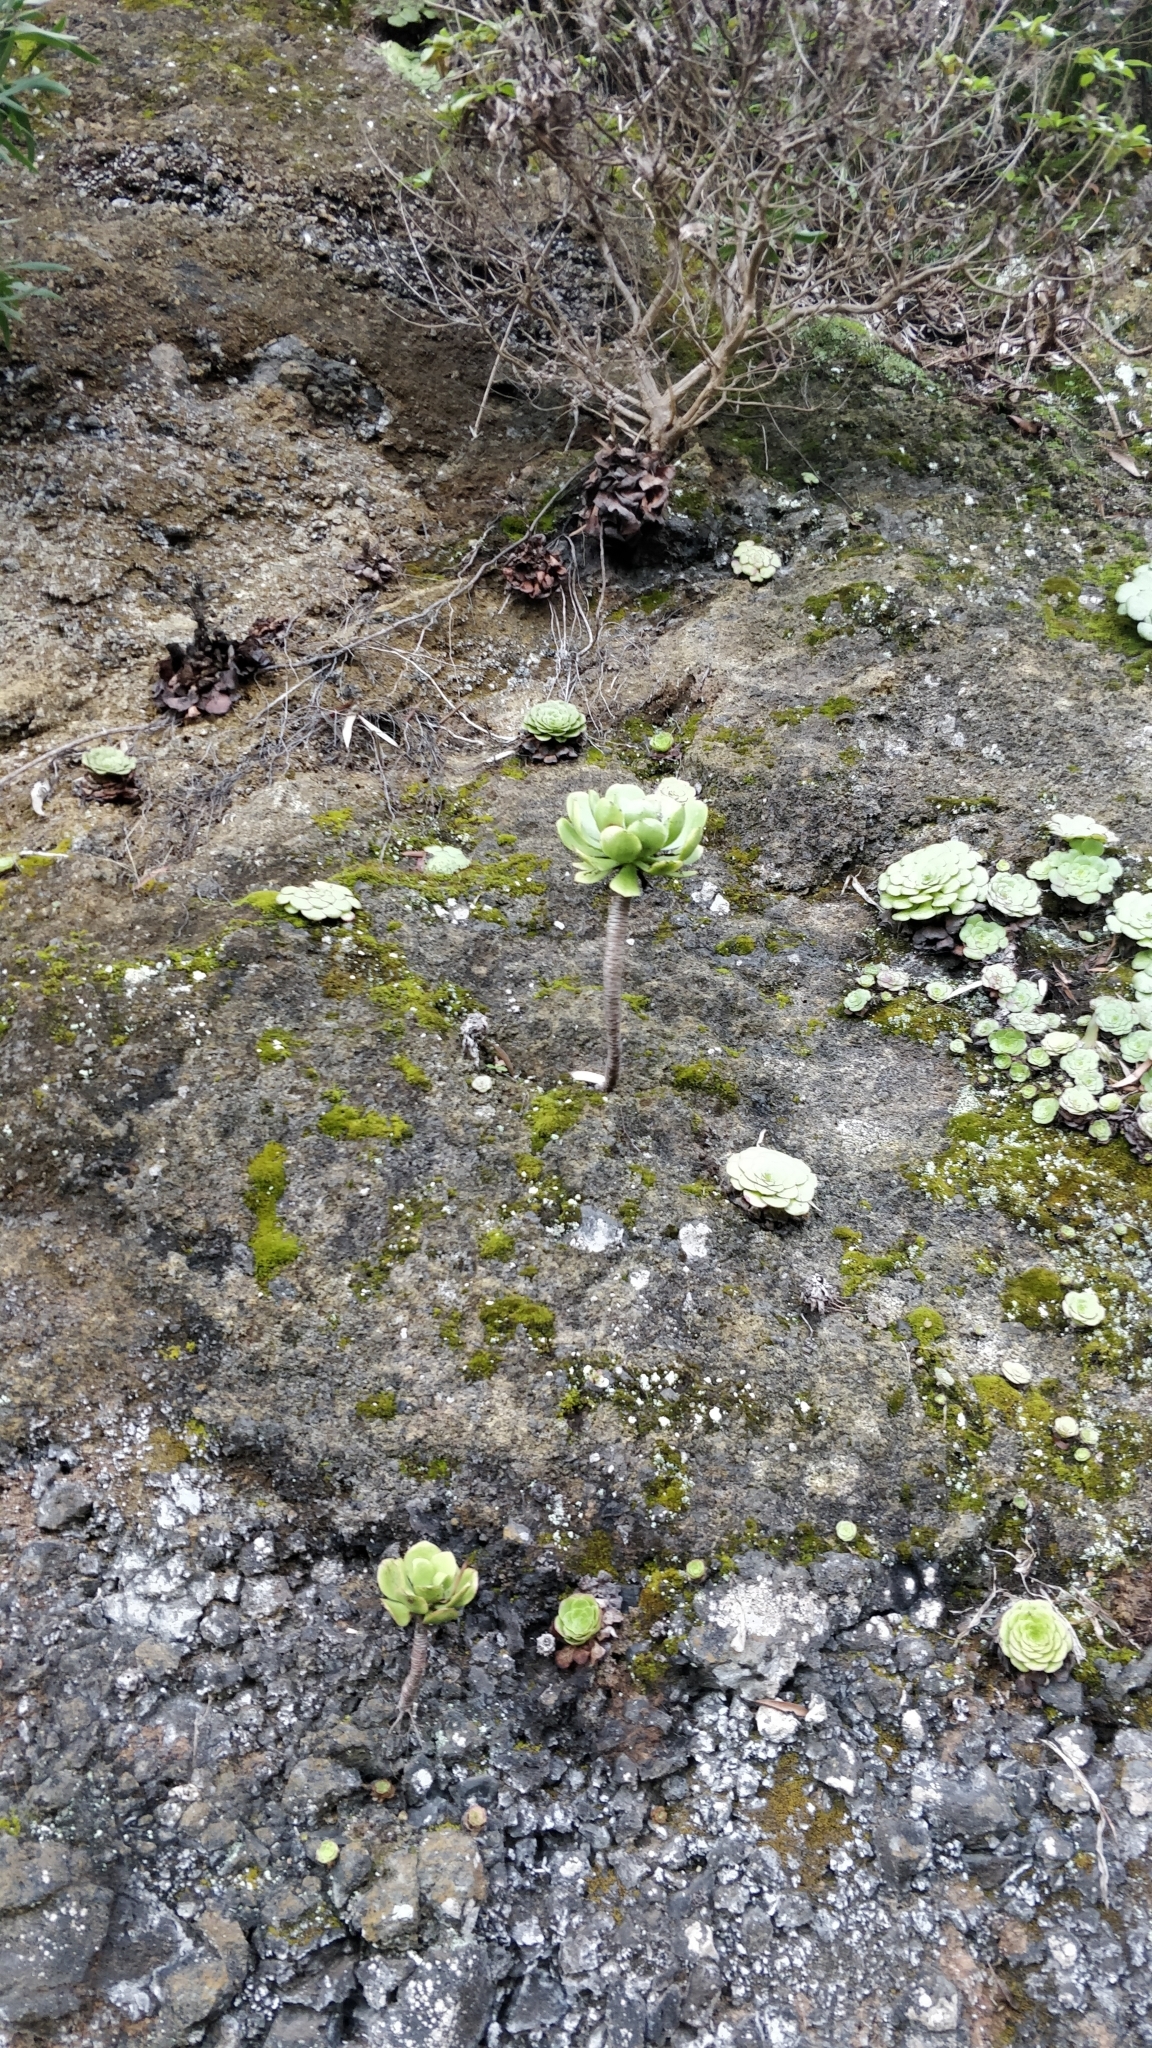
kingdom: Plantae
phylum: Tracheophyta
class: Magnoliopsida
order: Saxifragales
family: Crassulaceae
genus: Aeonium
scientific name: Aeonium glutinosum
